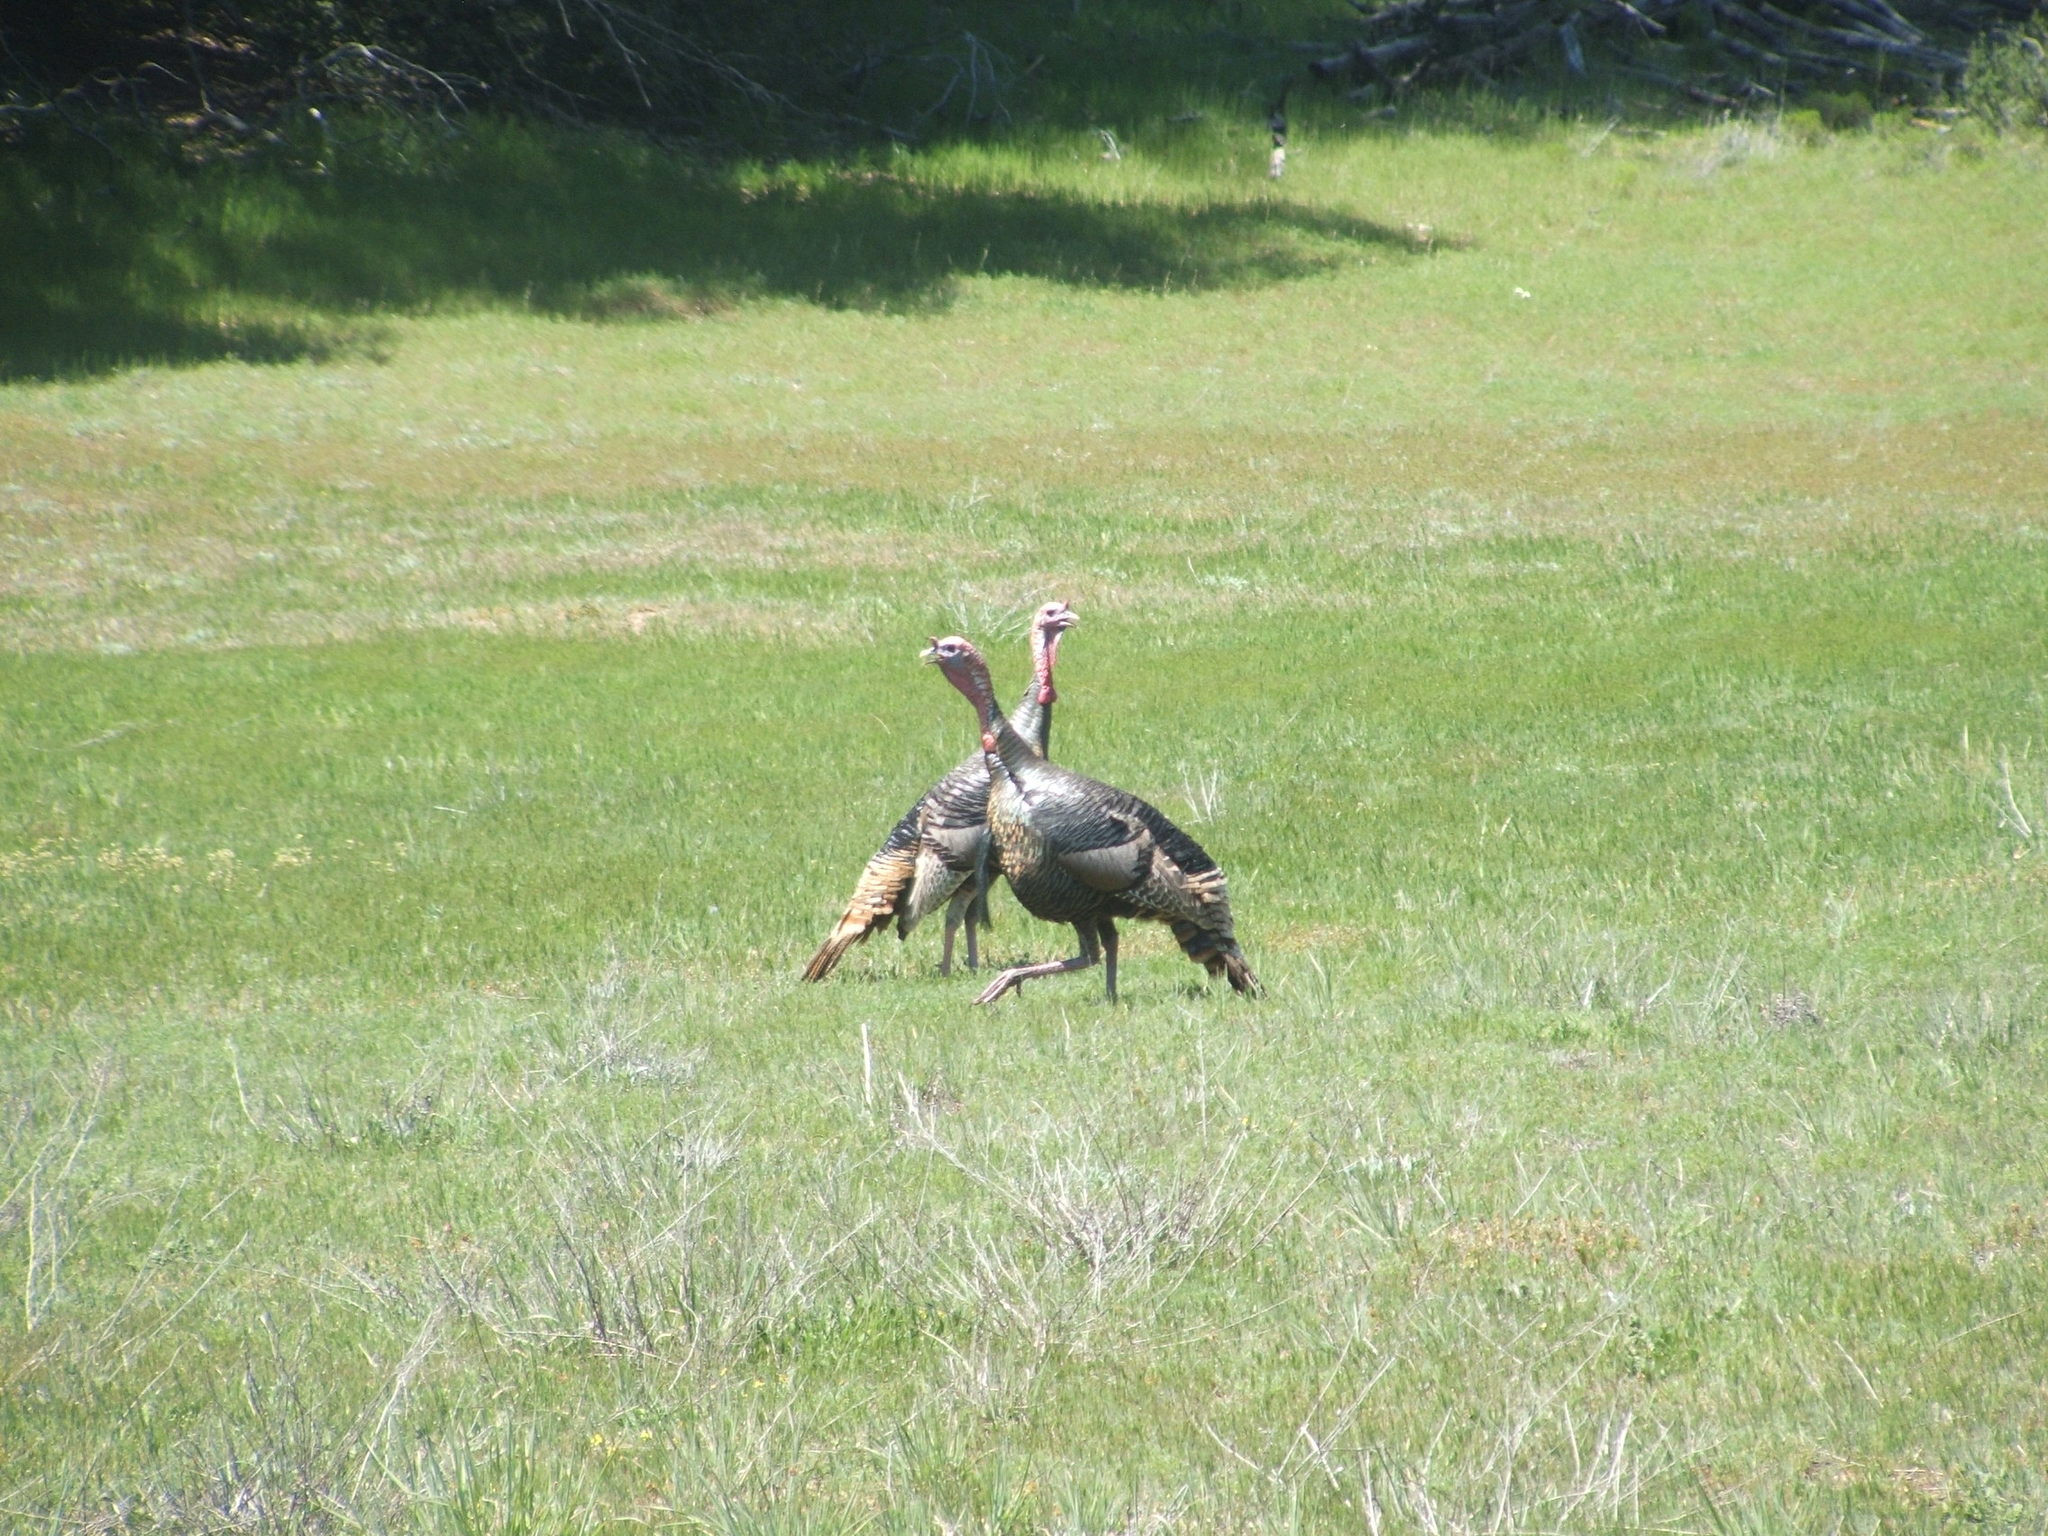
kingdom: Animalia
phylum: Chordata
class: Aves
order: Galliformes
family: Phasianidae
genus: Meleagris
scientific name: Meleagris gallopavo
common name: Wild turkey
